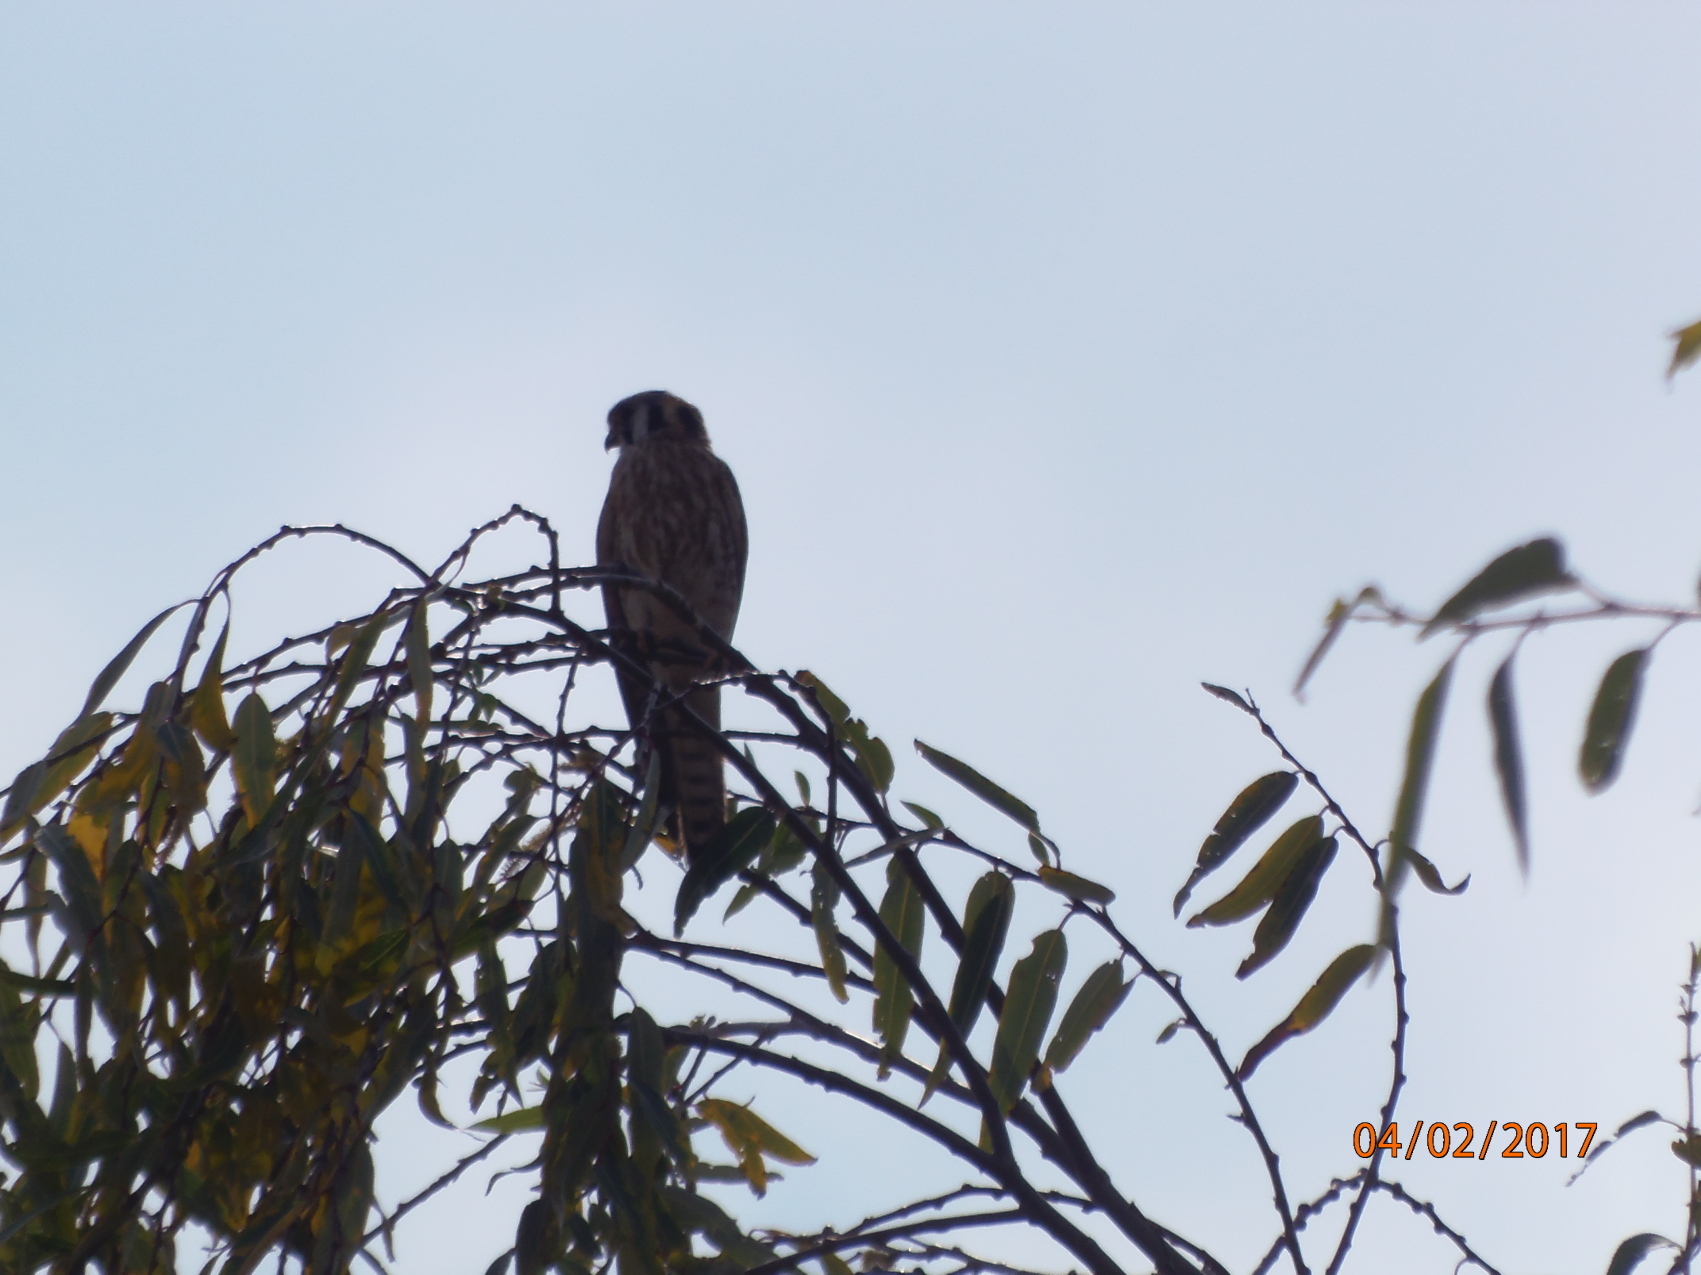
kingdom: Animalia
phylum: Chordata
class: Aves
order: Falconiformes
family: Falconidae
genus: Falco
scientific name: Falco sparverius
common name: American kestrel
